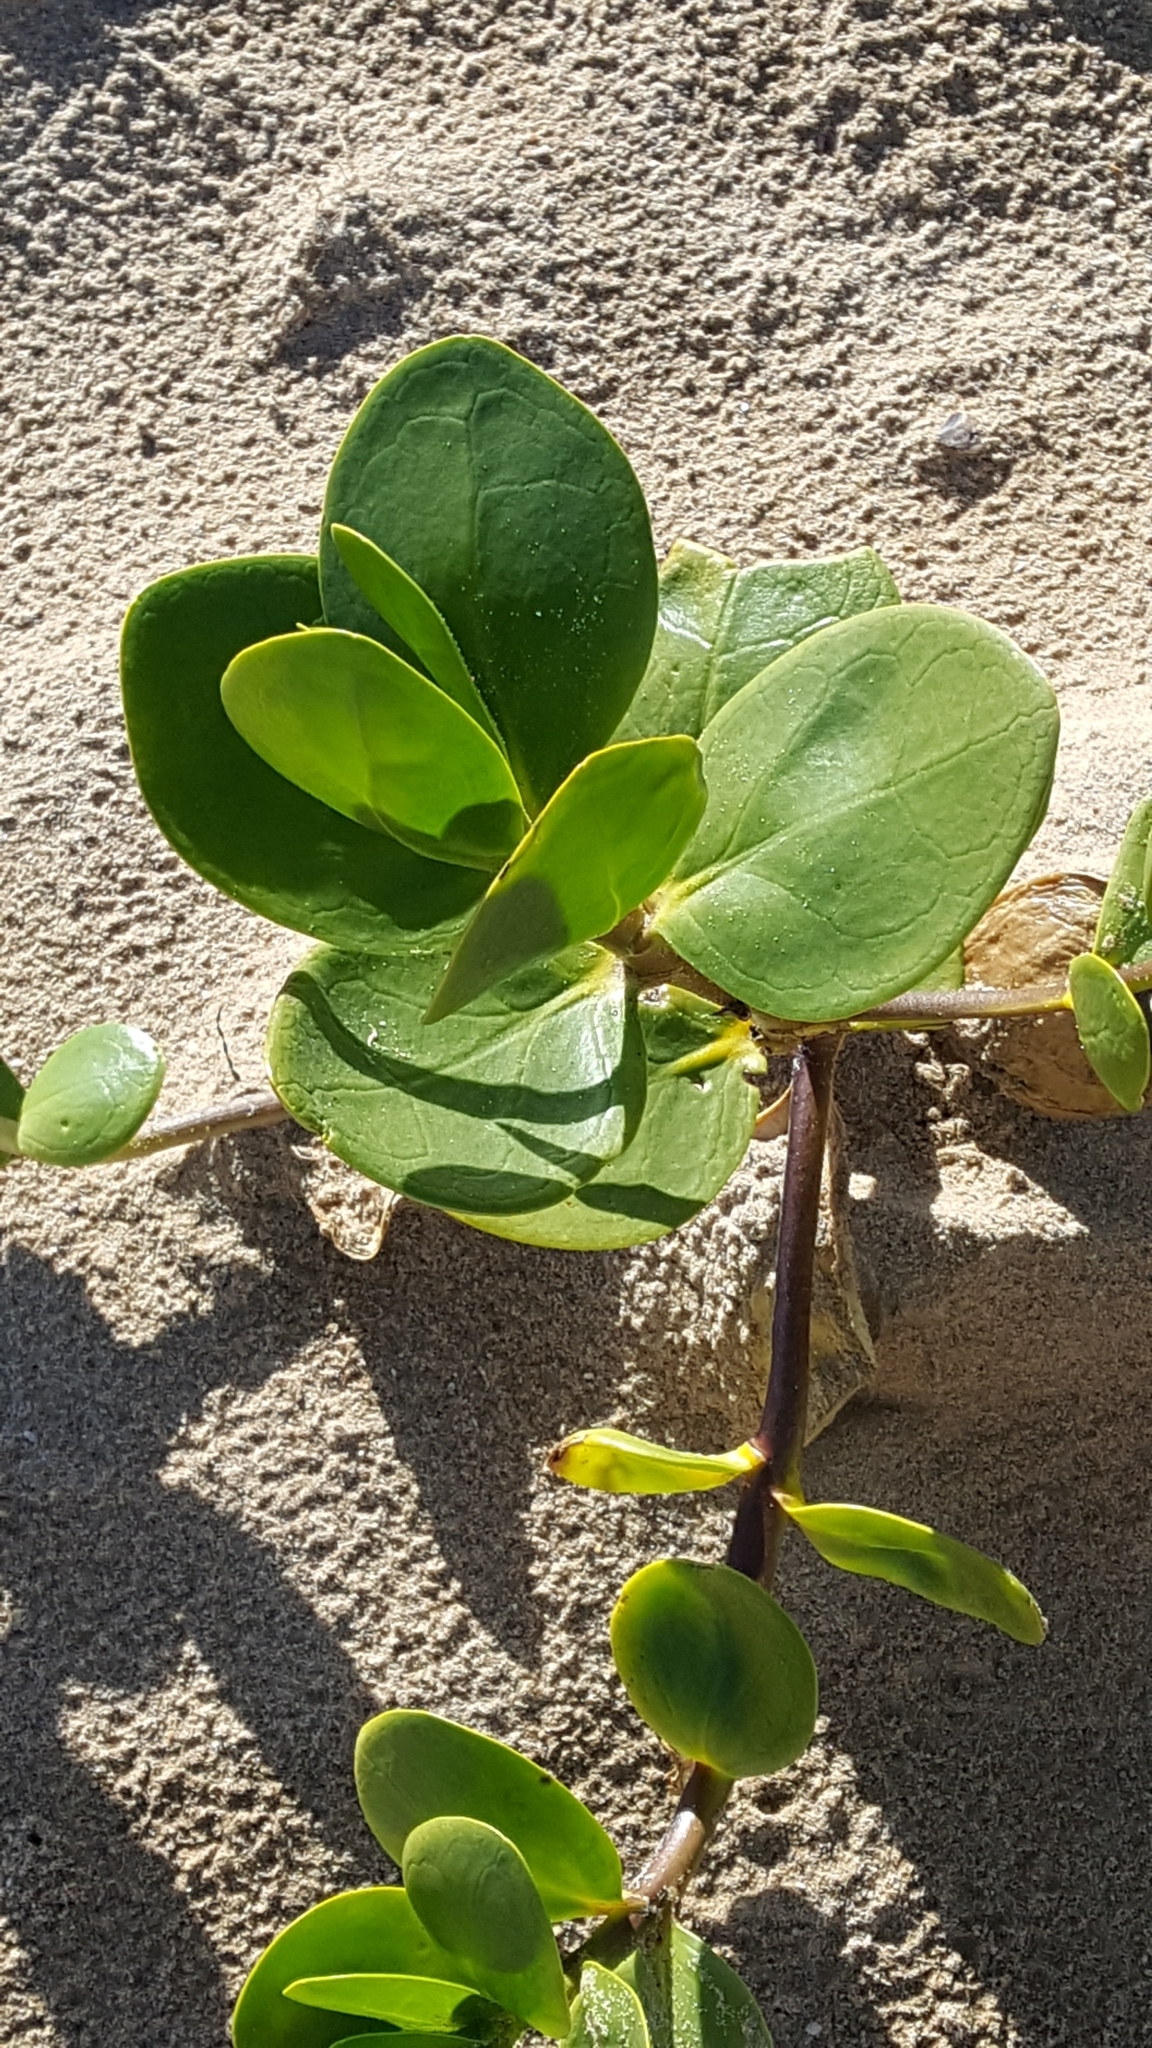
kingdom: Plantae
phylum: Tracheophyta
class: Magnoliopsida
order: Asterales
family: Goodeniaceae
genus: Scaevola
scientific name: Scaevola plumieri
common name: Gull feed
